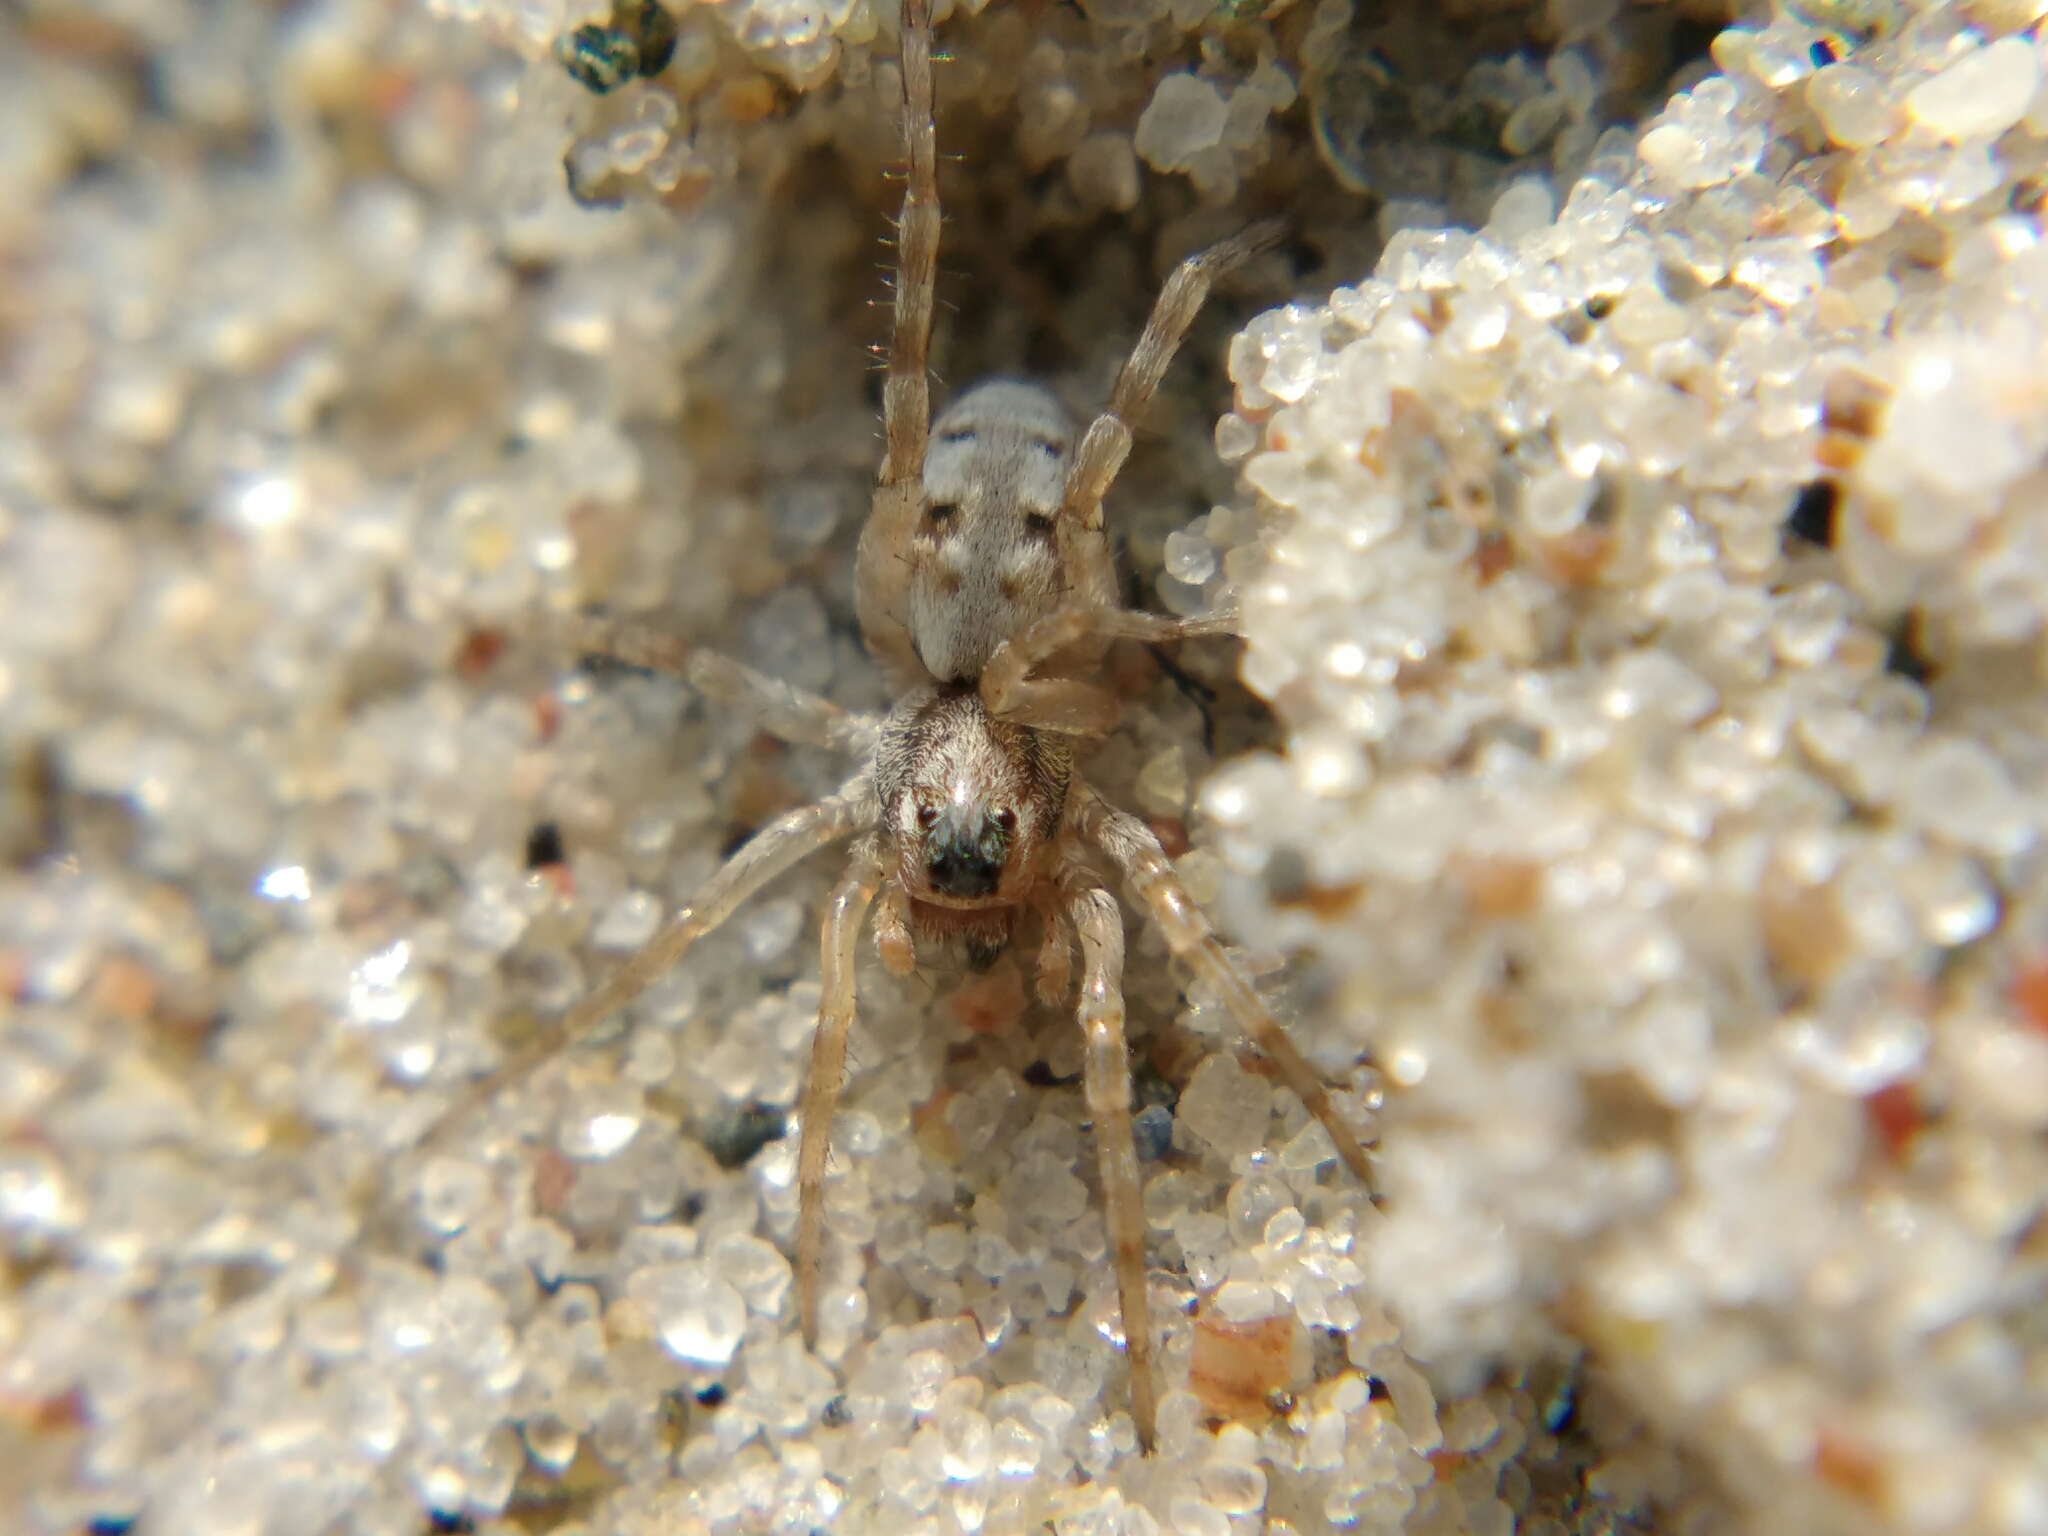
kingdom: Animalia
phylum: Arthropoda
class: Arachnida
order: Araneae
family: Lycosidae
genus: Arctosa
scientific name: Arctosa perita
